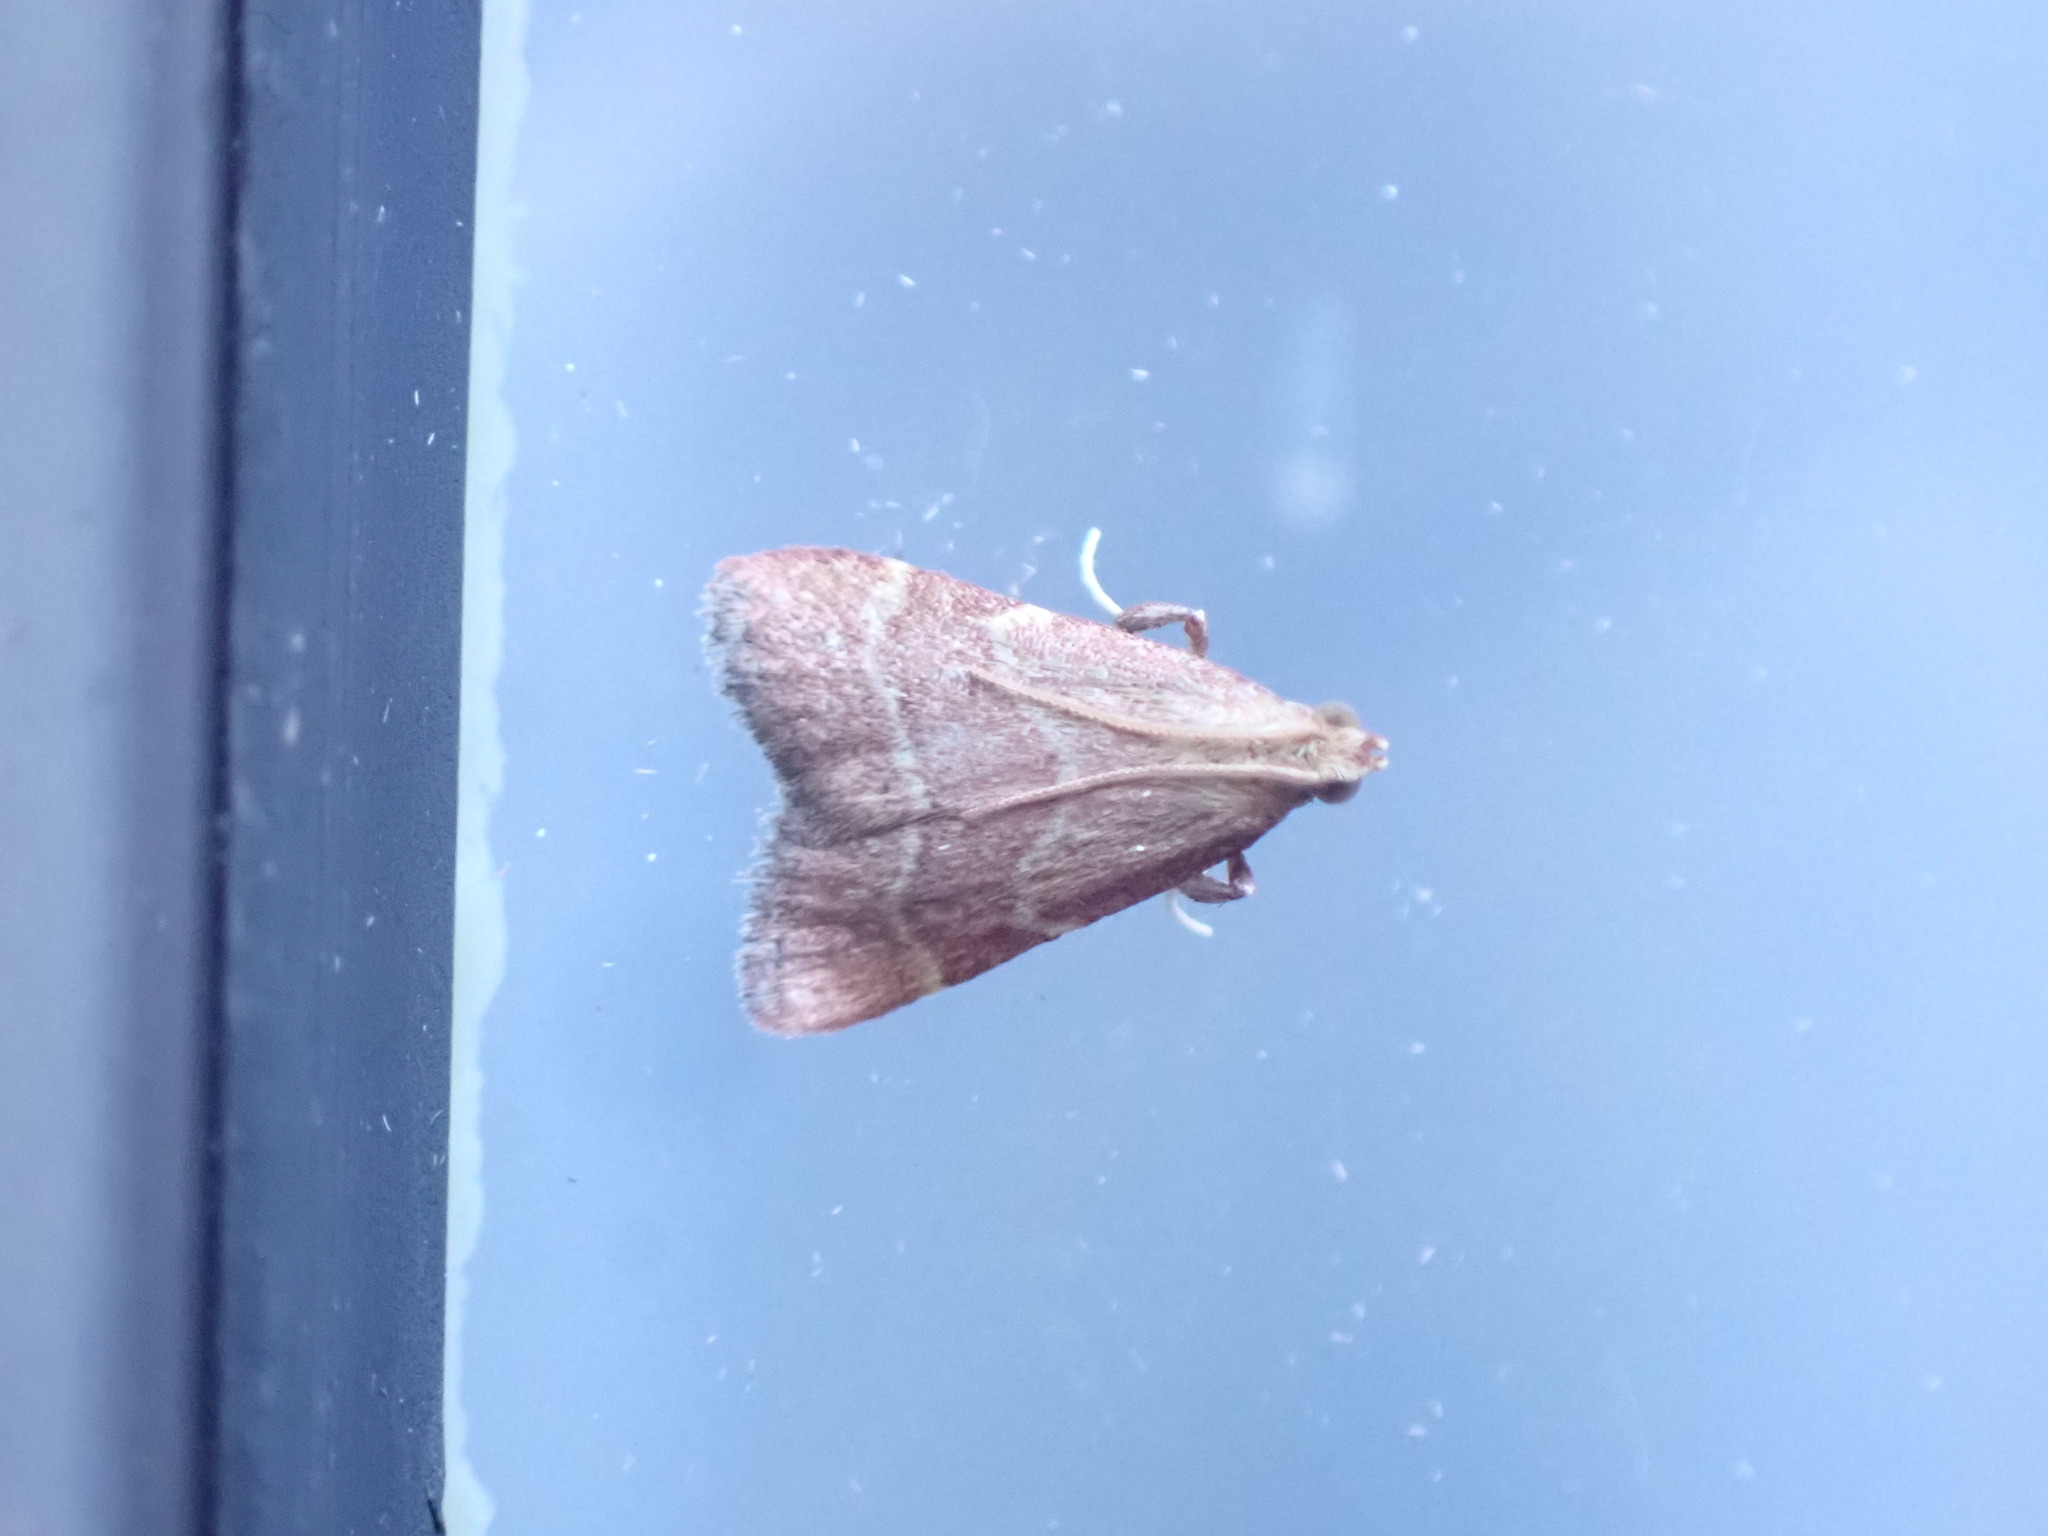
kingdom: Animalia
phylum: Arthropoda
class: Insecta
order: Lepidoptera
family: Pyralidae
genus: Arta
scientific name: Arta epicoenalis
